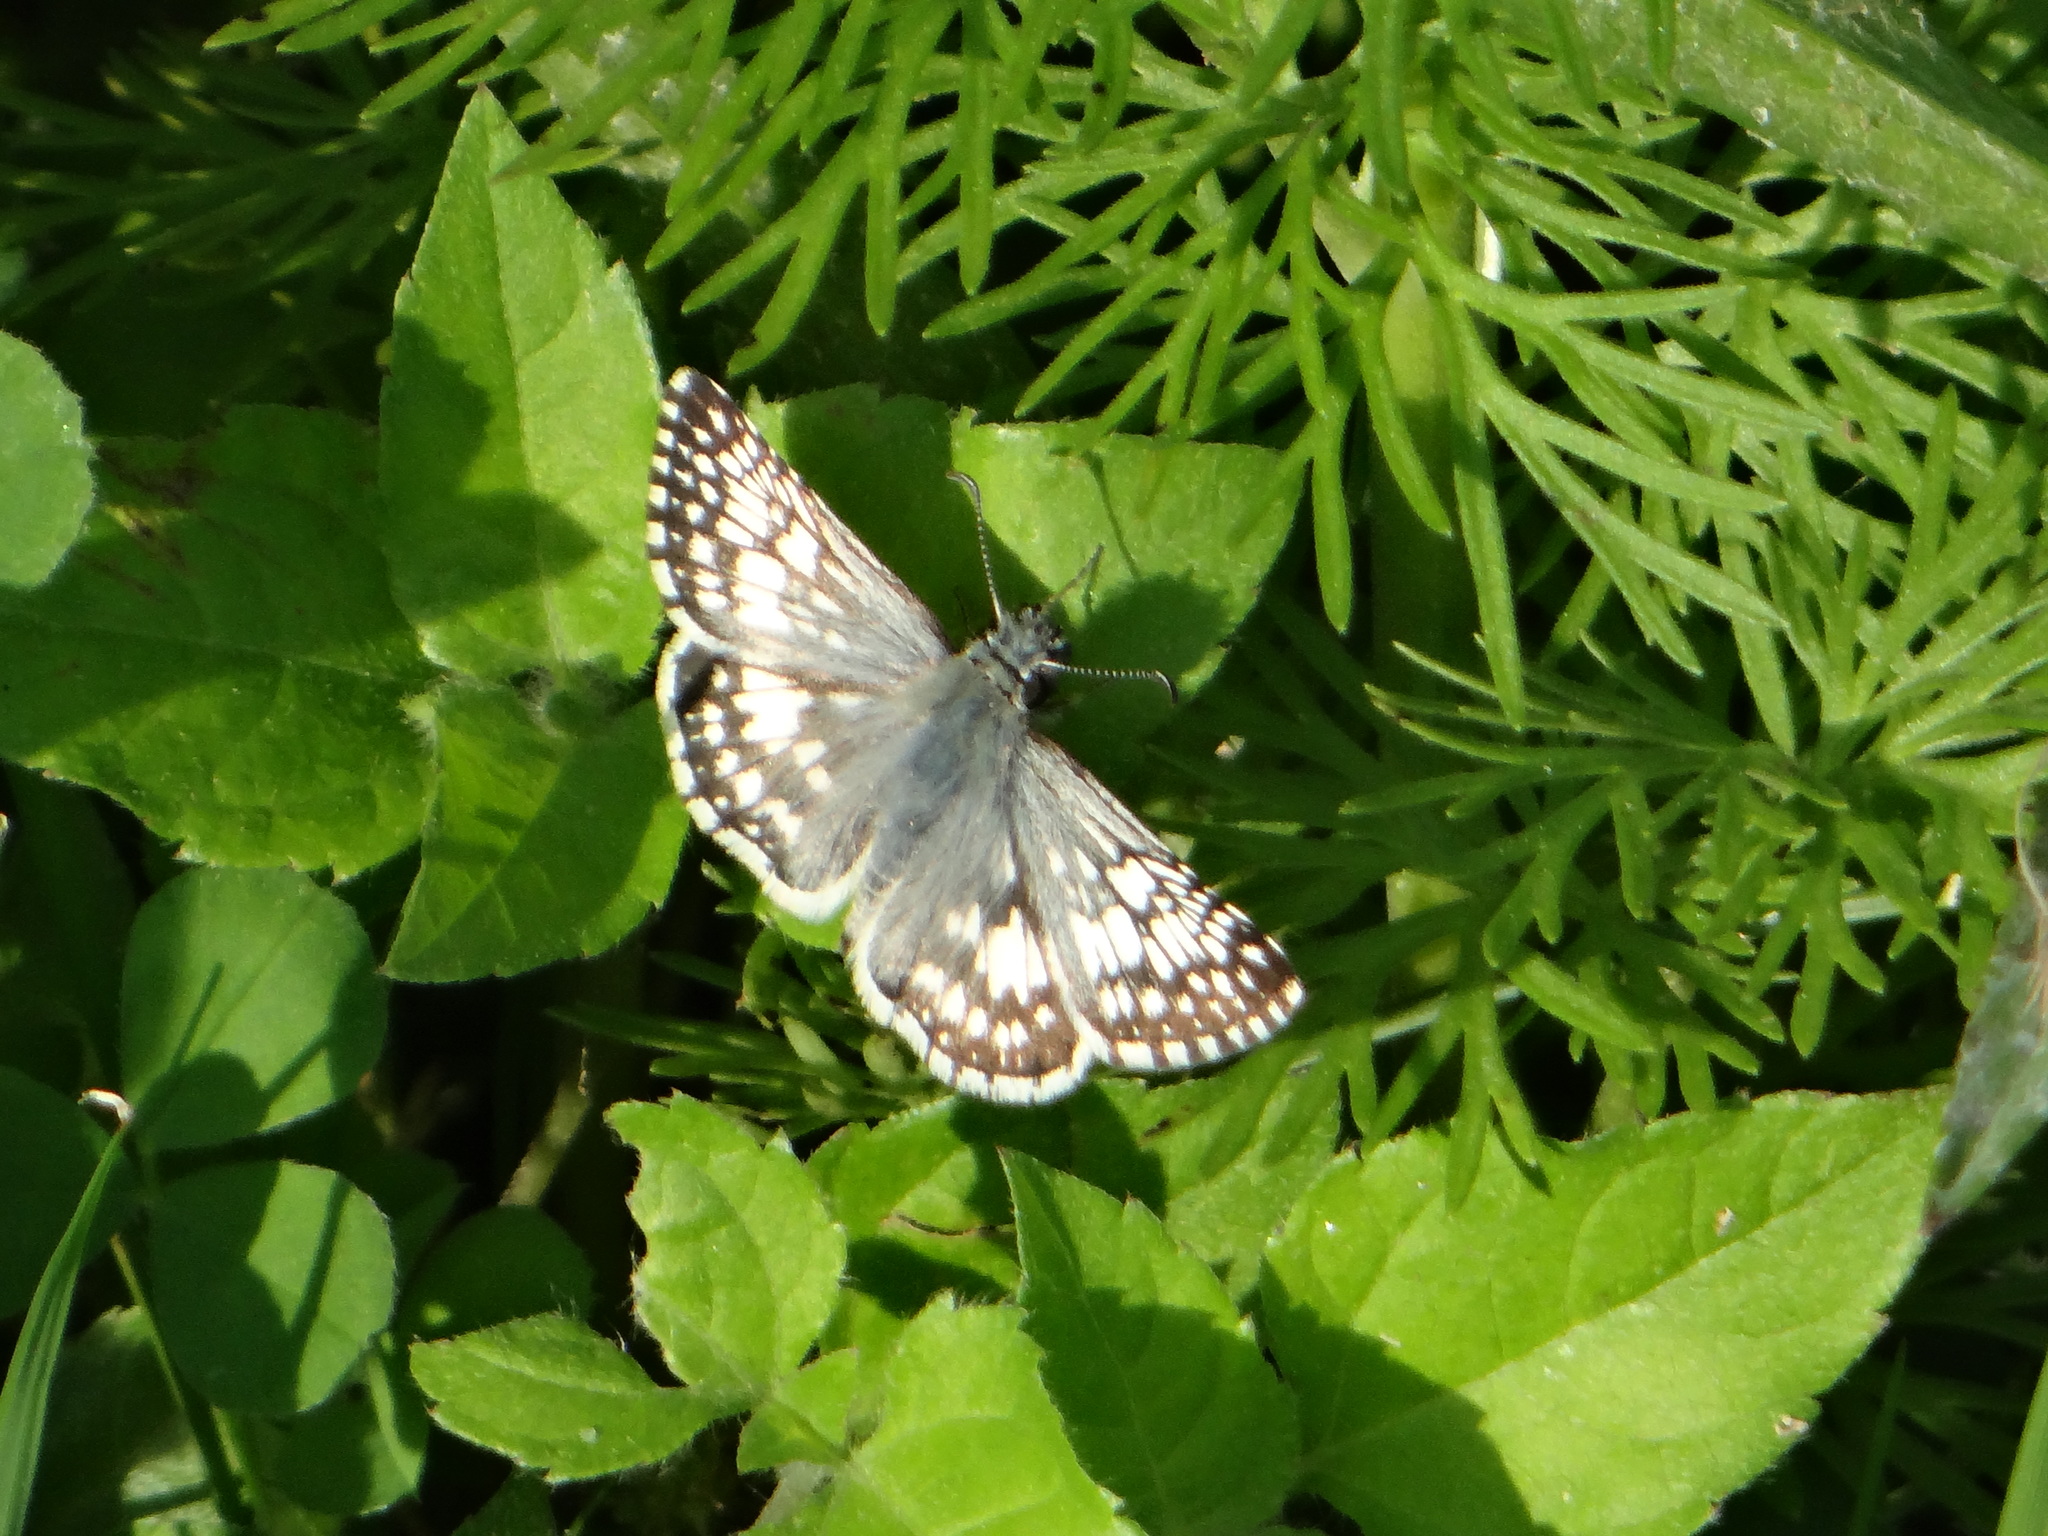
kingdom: Animalia
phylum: Arthropoda
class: Insecta
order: Lepidoptera
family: Hesperiidae
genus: Burnsius
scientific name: Burnsius communis
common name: Common checkered-skipper
